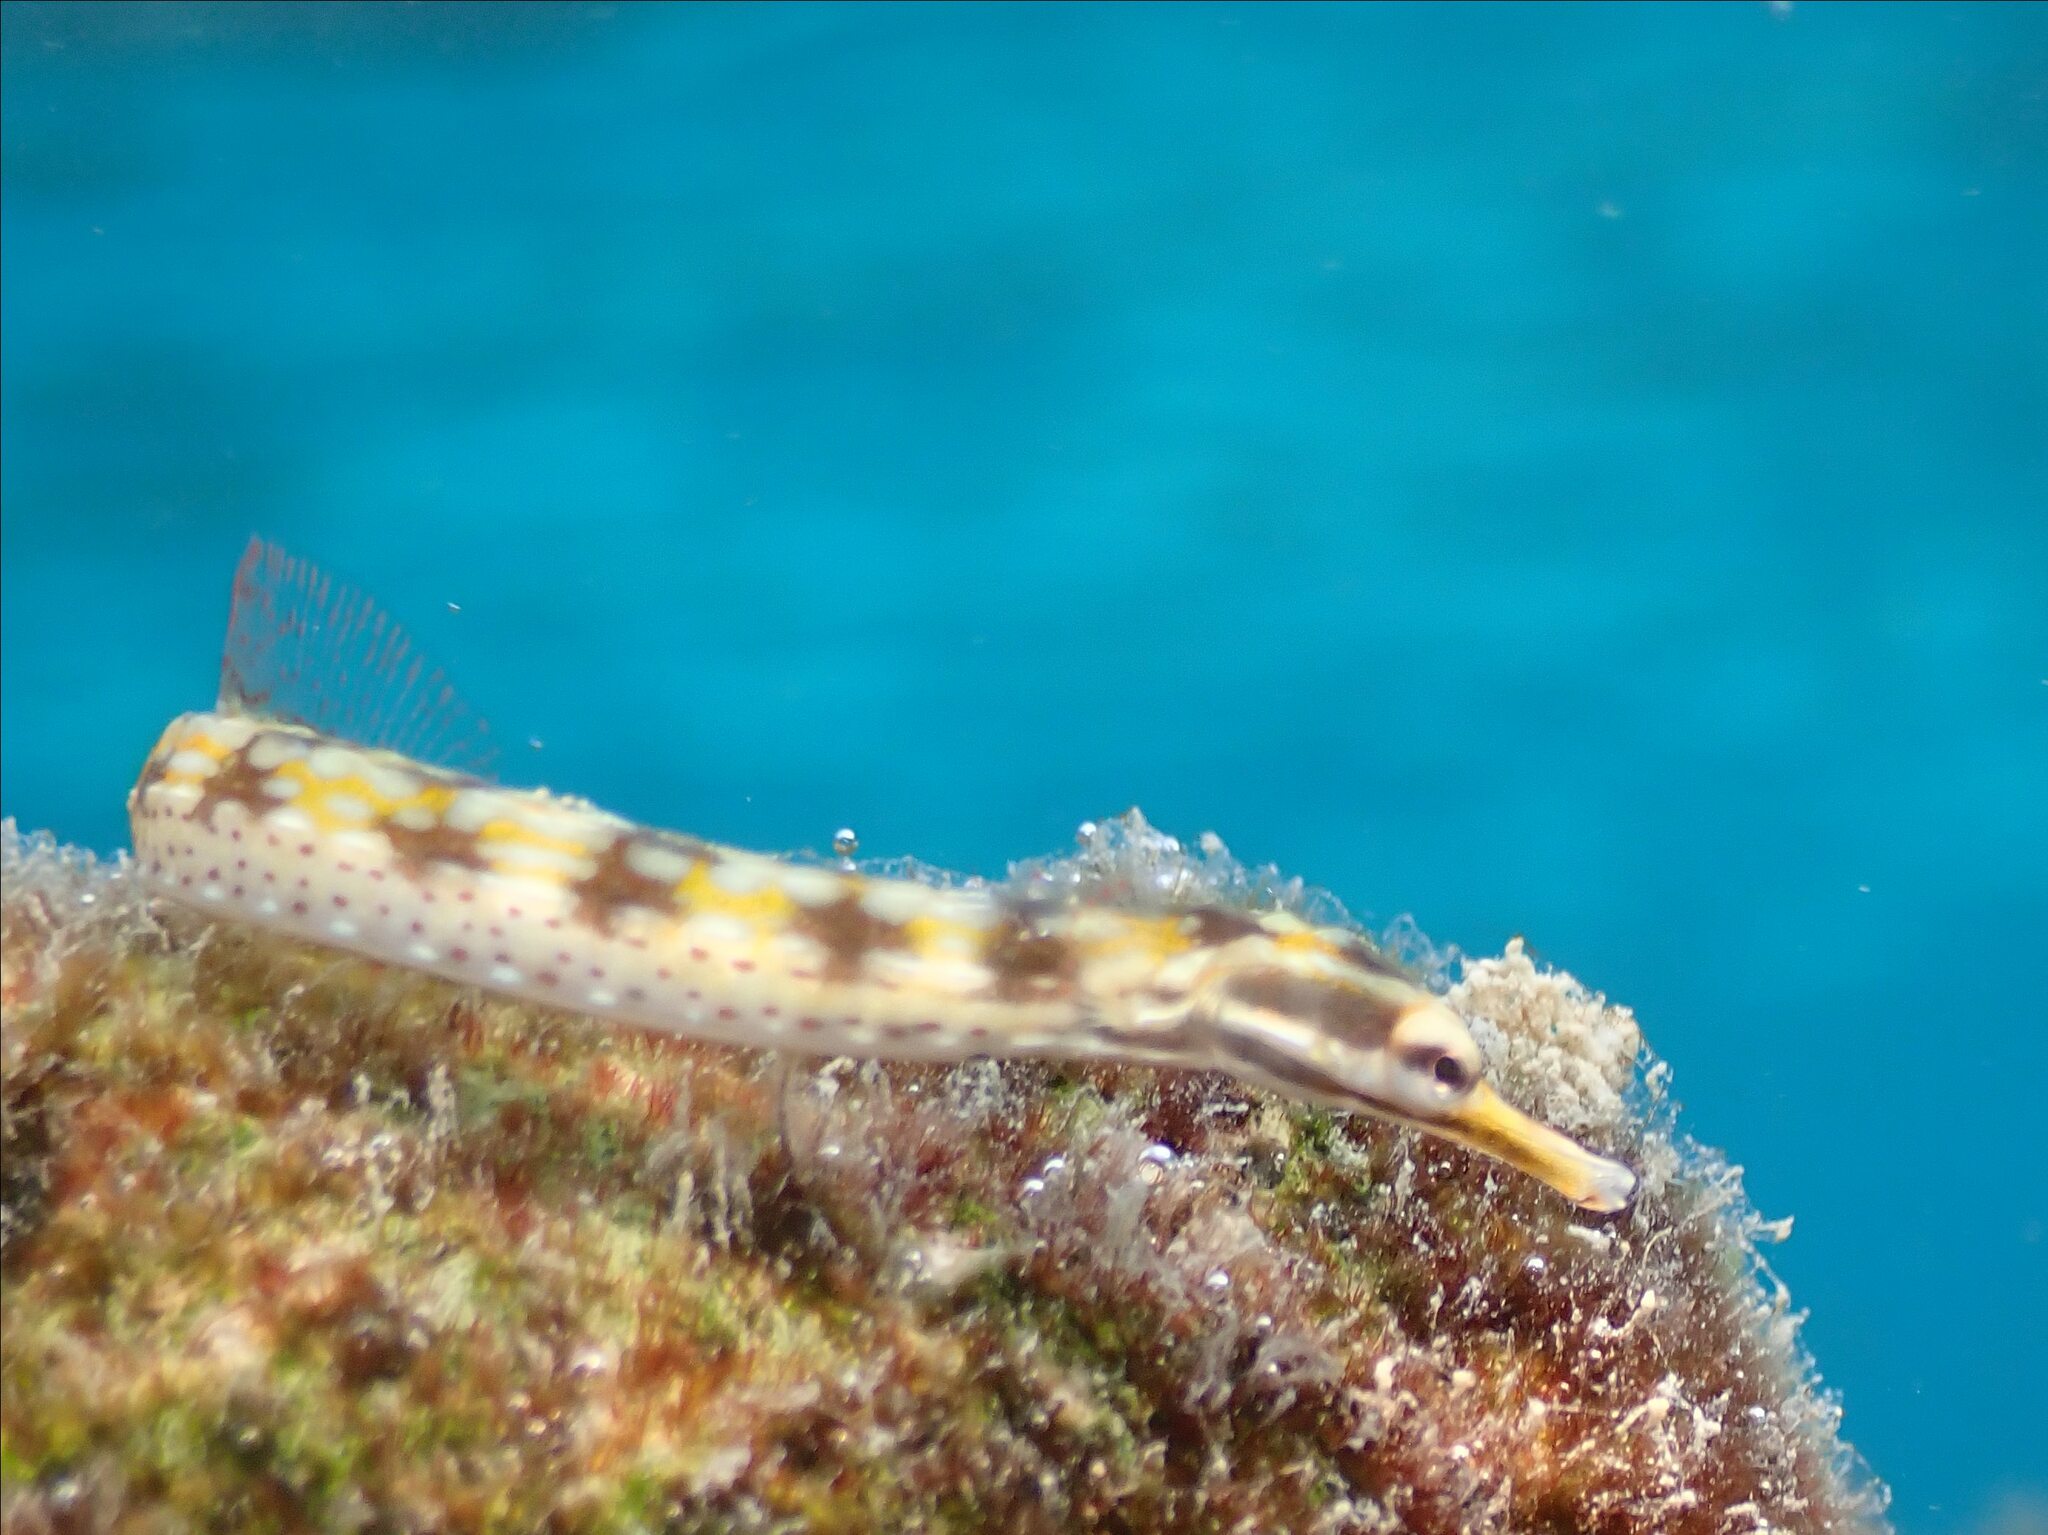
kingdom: Animalia
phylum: Chordata
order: Syngnathiformes
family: Syngnathidae
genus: Corythoichthys
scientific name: Corythoichthys flavofasciatus
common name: Banded pipefish
